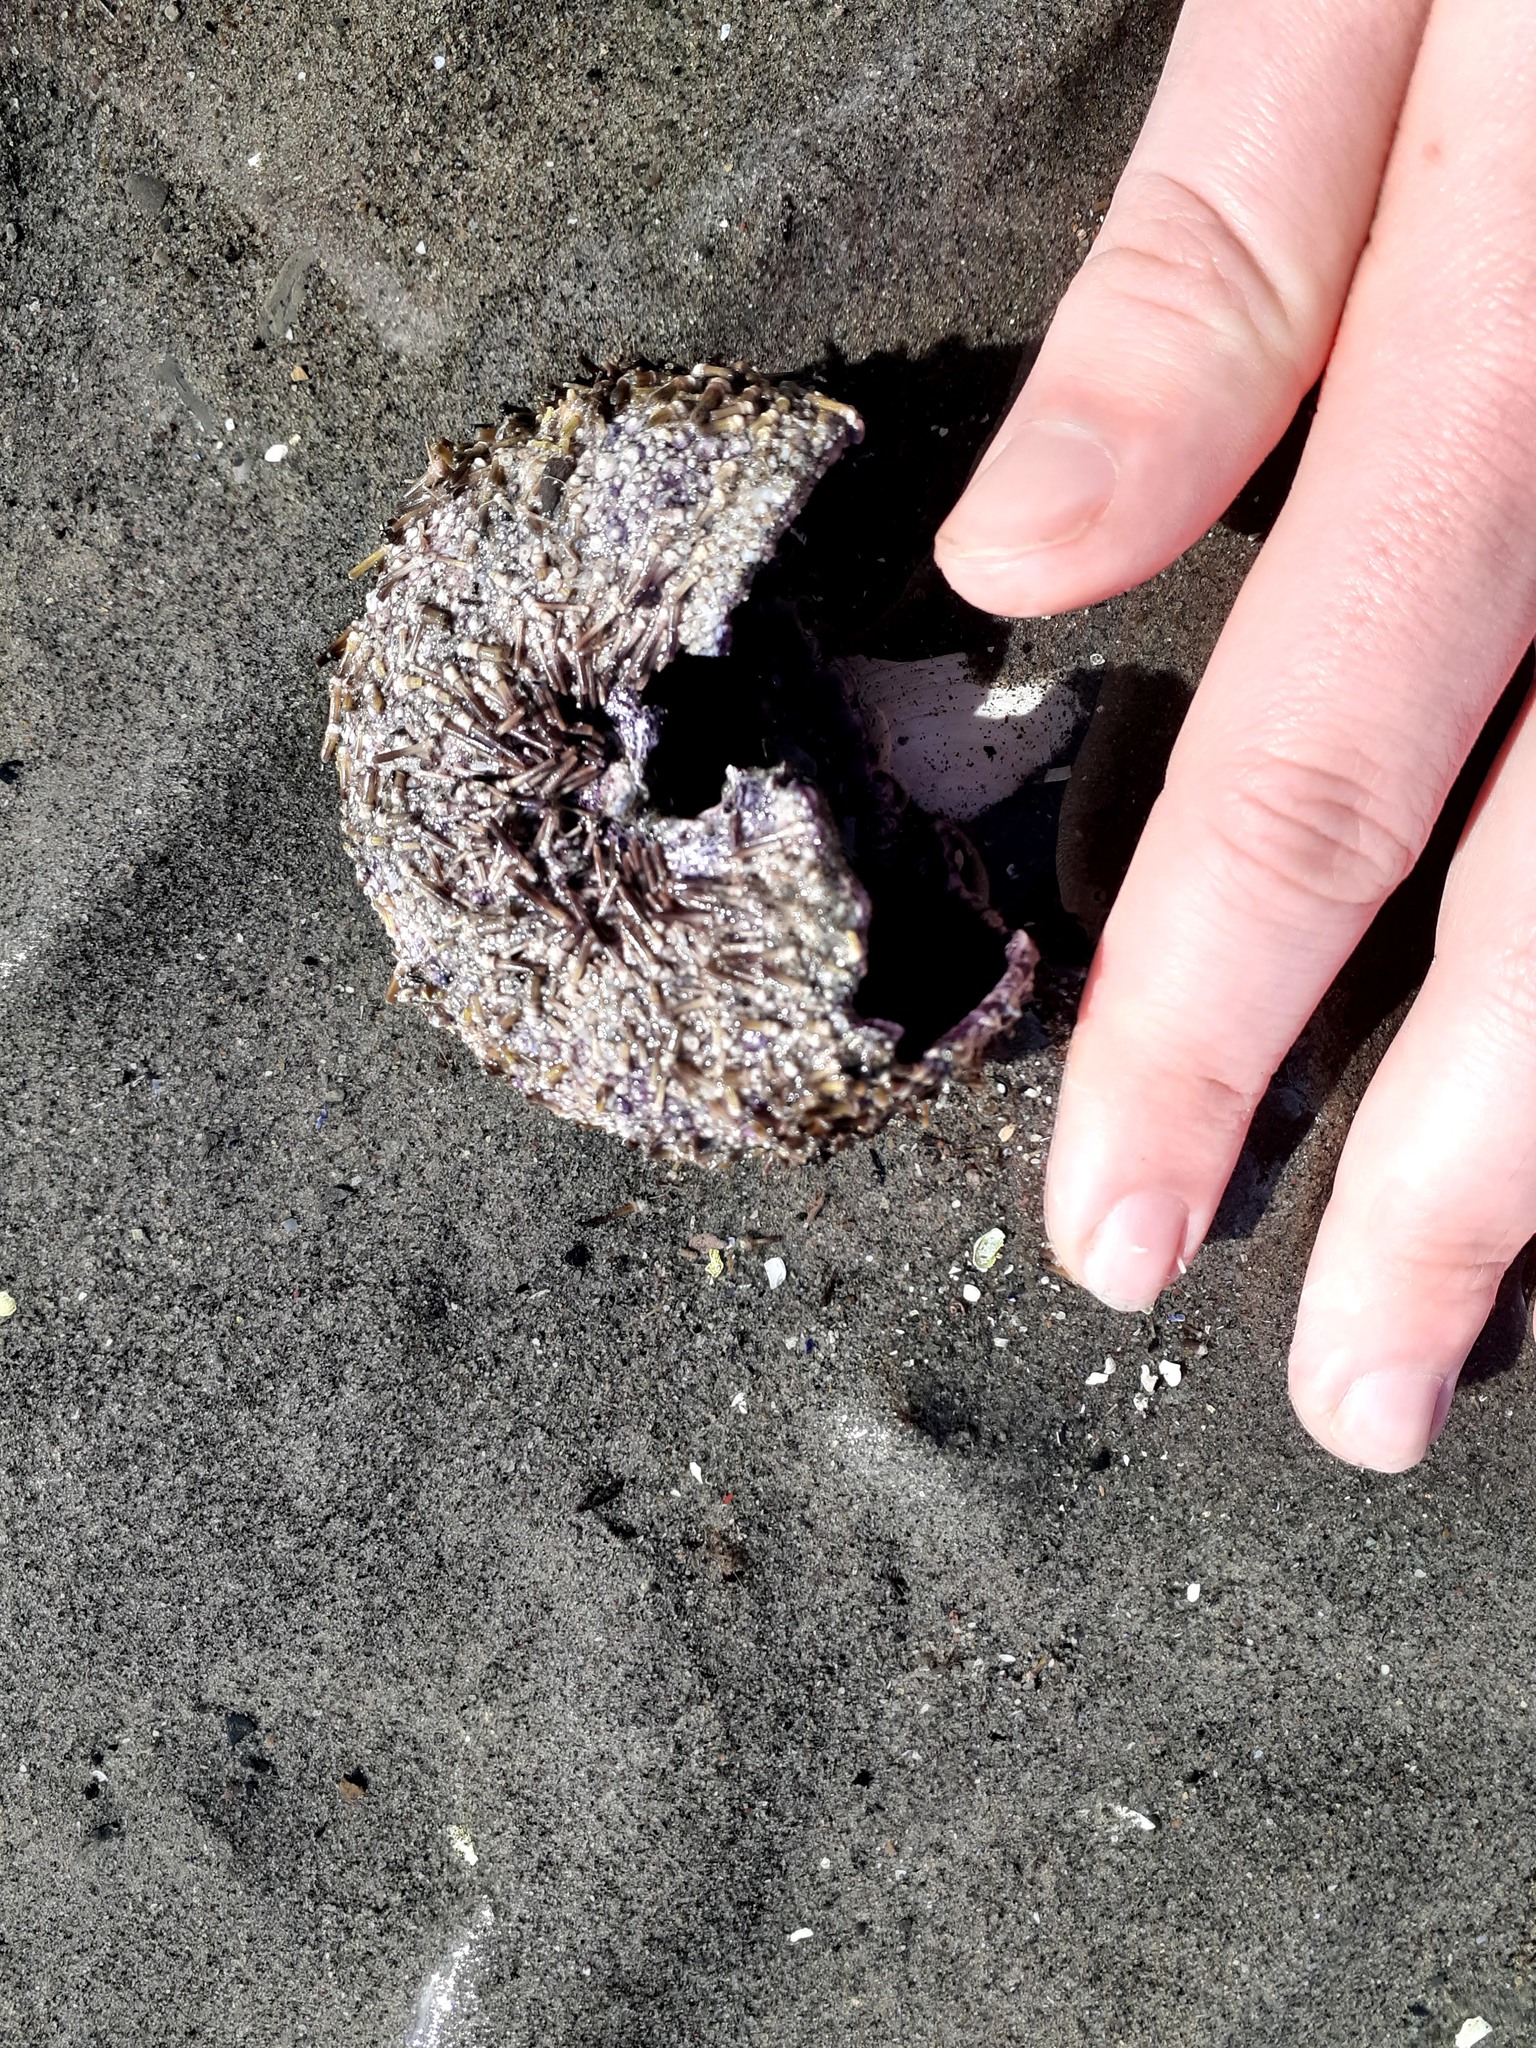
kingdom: Animalia
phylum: Echinodermata
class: Echinoidea
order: Camarodonta
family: Strongylocentrotidae
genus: Strongylocentrotus
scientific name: Strongylocentrotus droebachiensis
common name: Northern sea urchin
